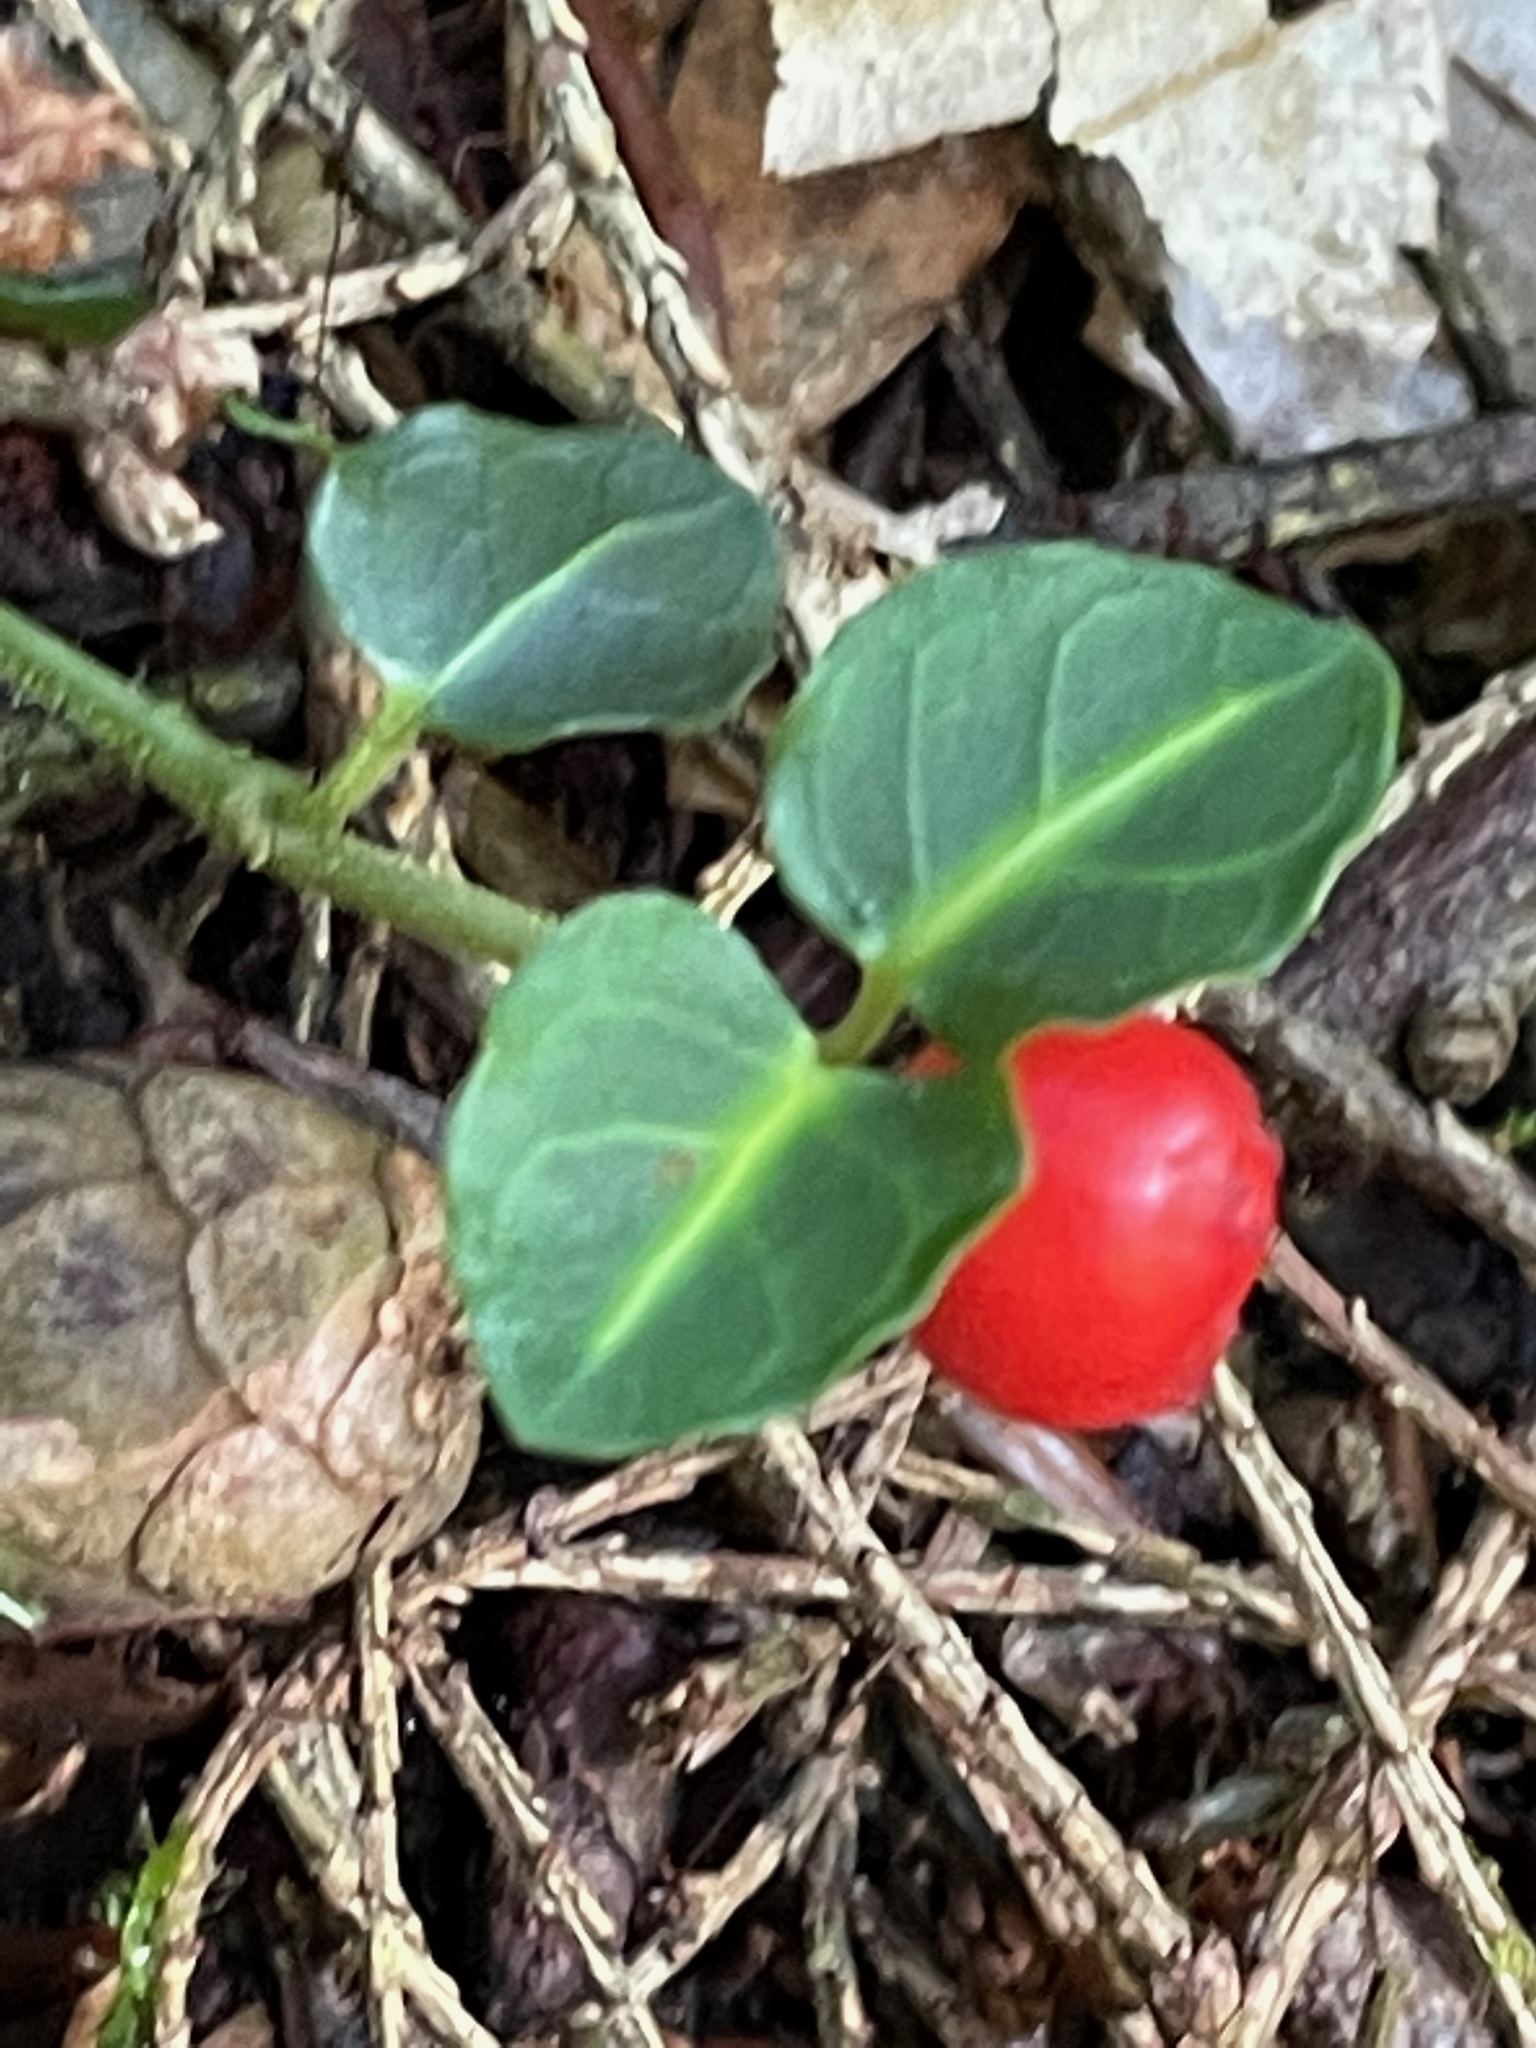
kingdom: Plantae
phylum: Tracheophyta
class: Magnoliopsida
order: Gentianales
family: Rubiaceae
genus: Mitchella
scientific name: Mitchella repens
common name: Partridge-berry
